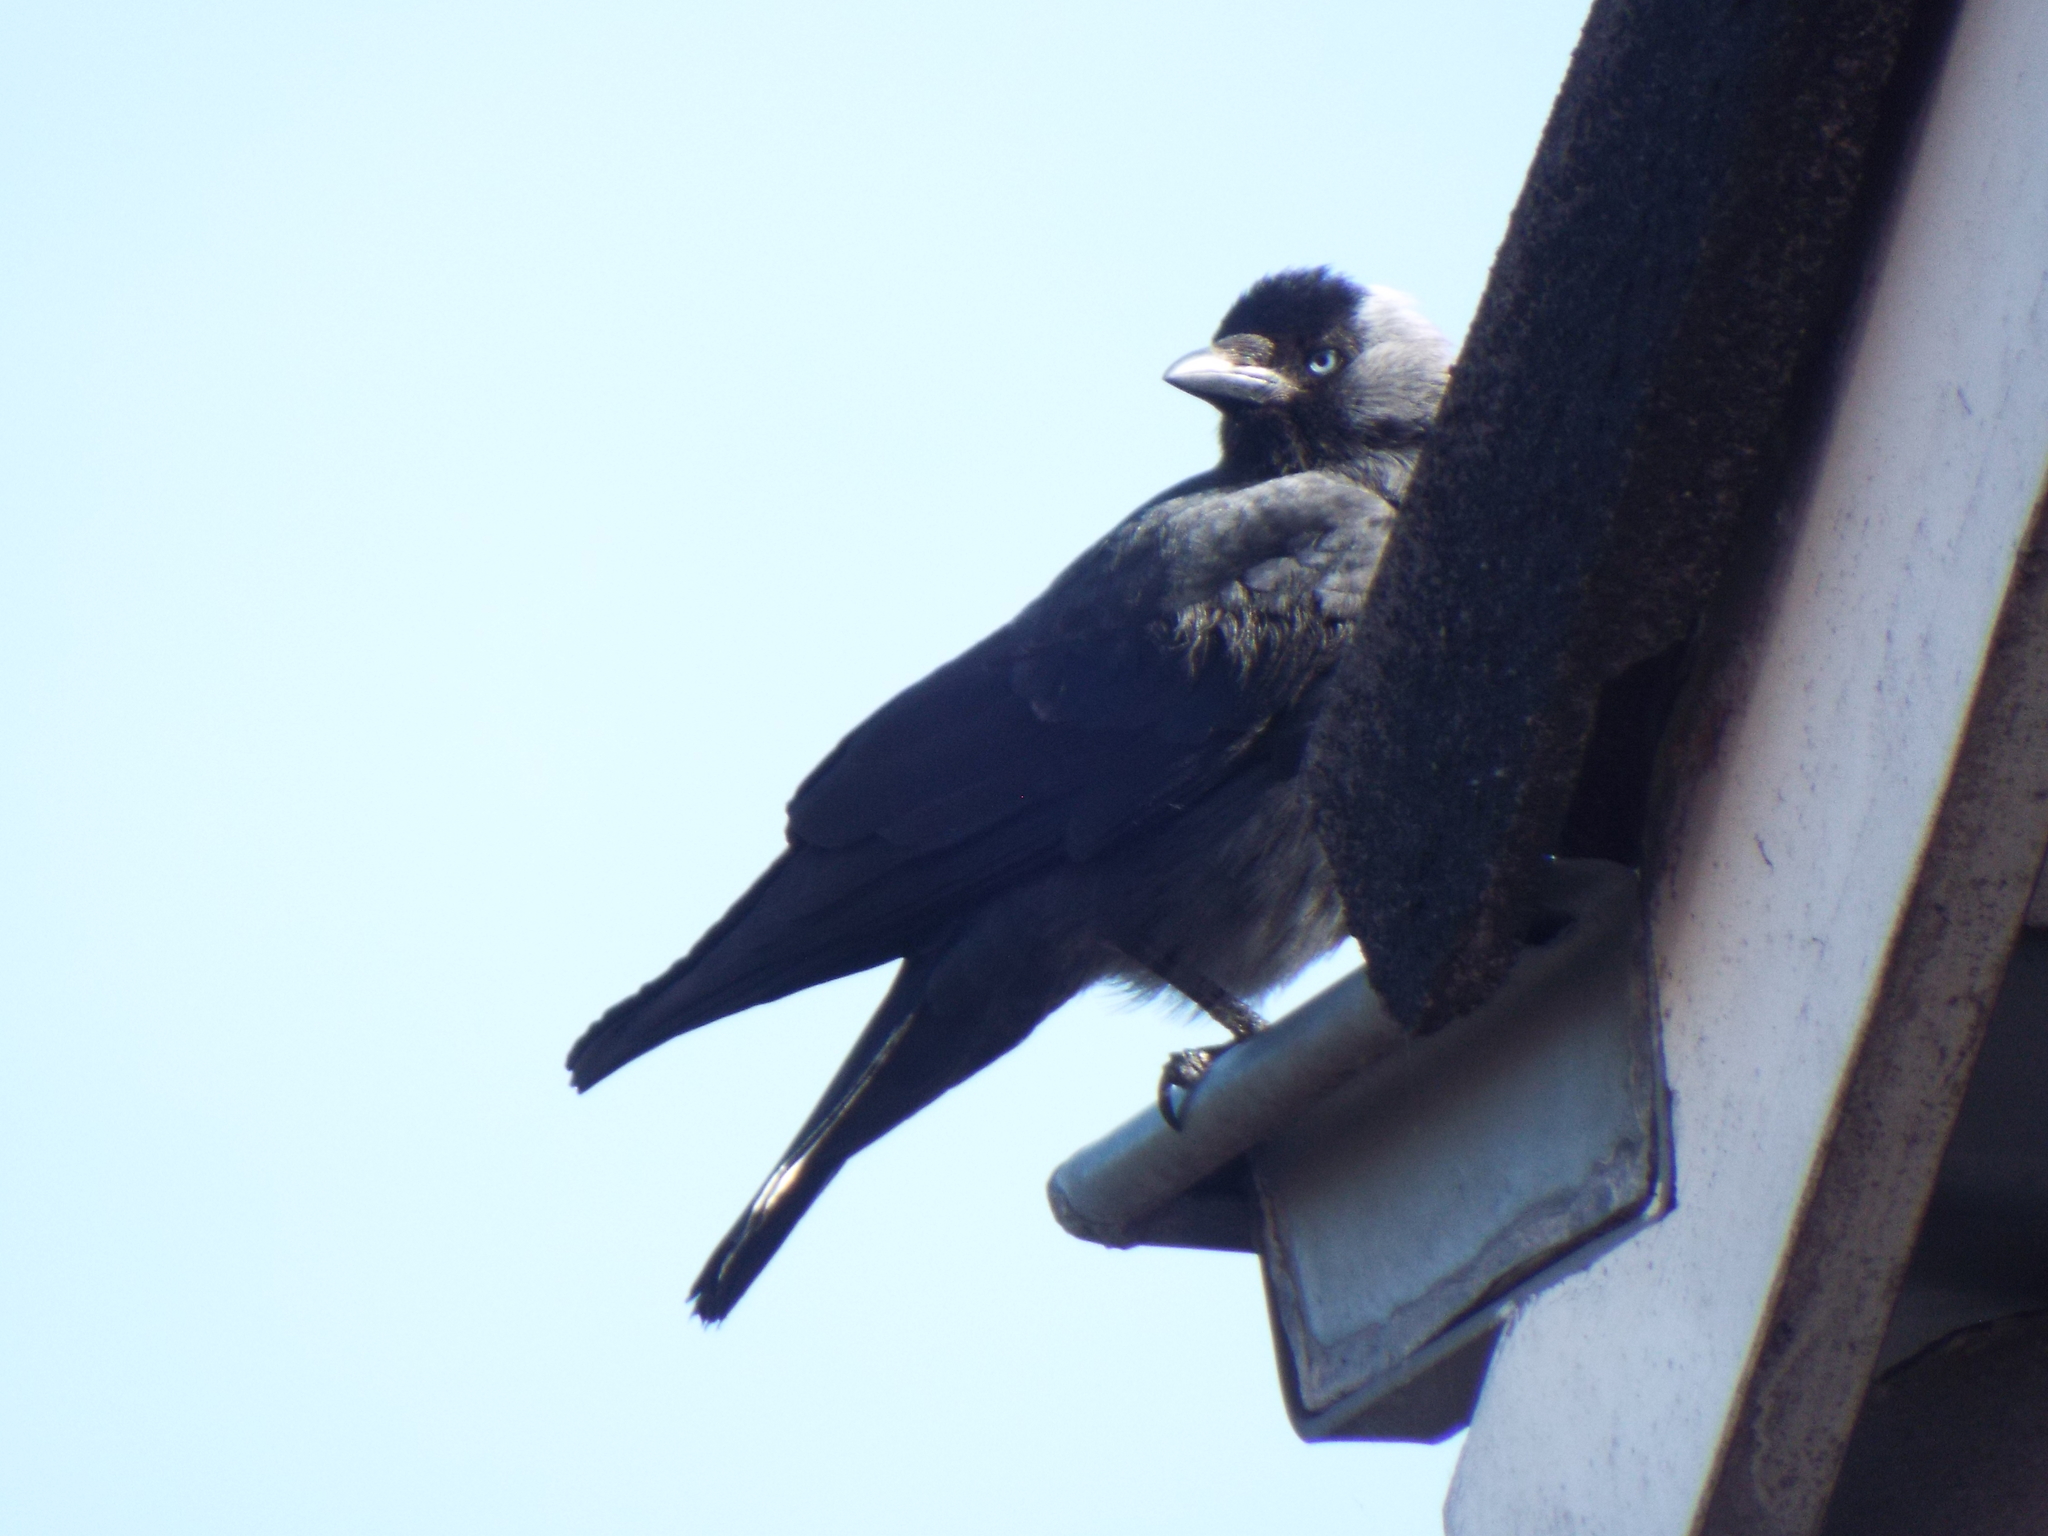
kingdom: Animalia
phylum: Chordata
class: Aves
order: Passeriformes
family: Corvidae
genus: Coloeus
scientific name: Coloeus monedula
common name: Western jackdaw
